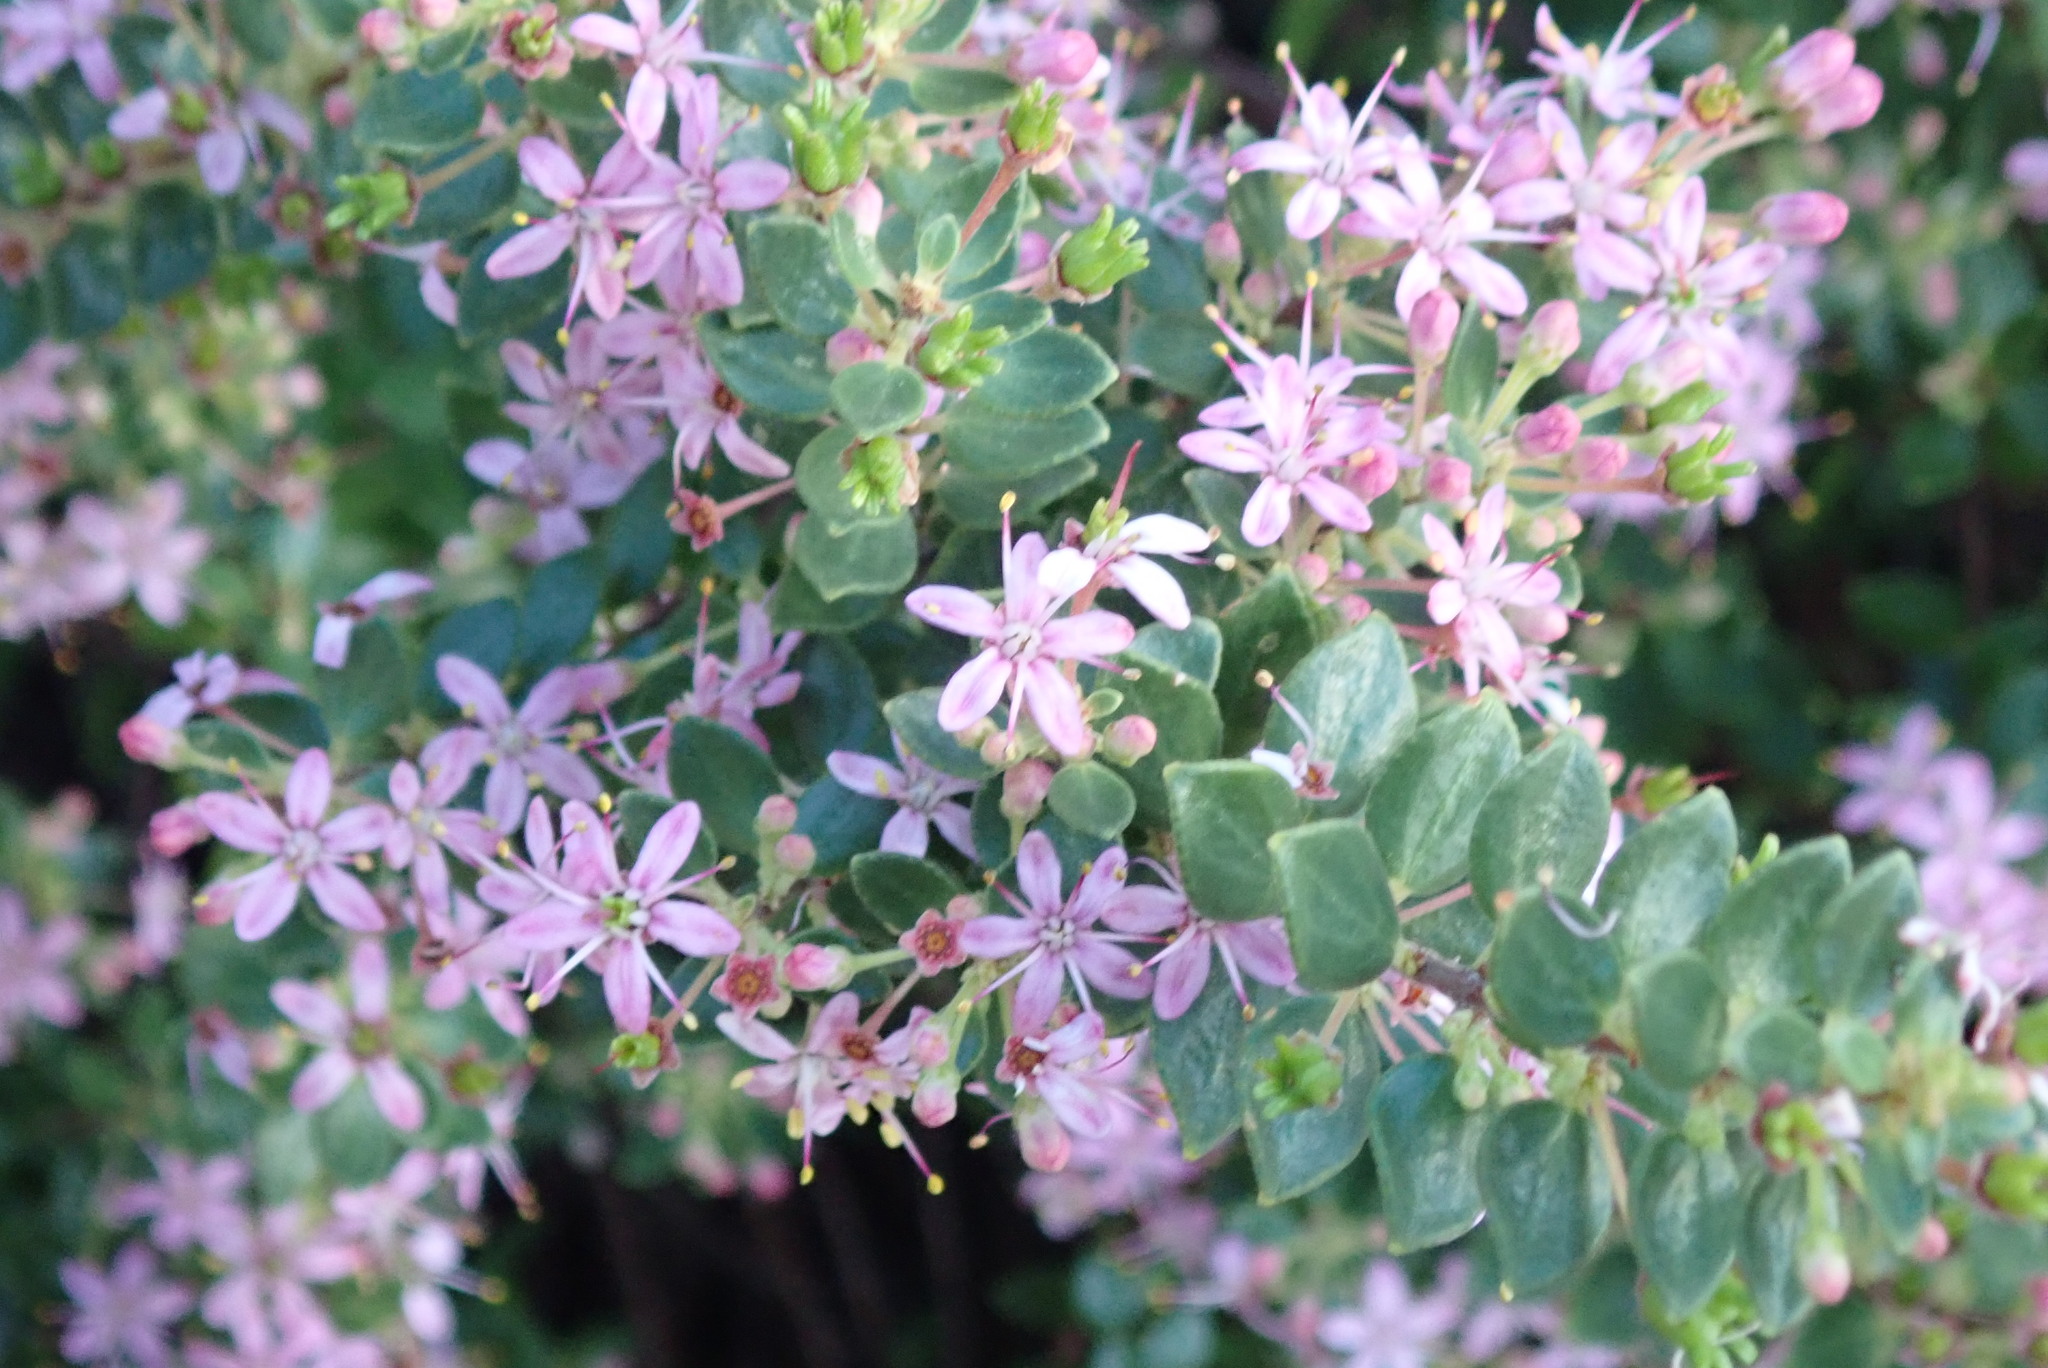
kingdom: Plantae
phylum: Tracheophyta
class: Magnoliopsida
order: Sapindales
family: Rutaceae
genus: Agathosma
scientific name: Agathosma ovata
